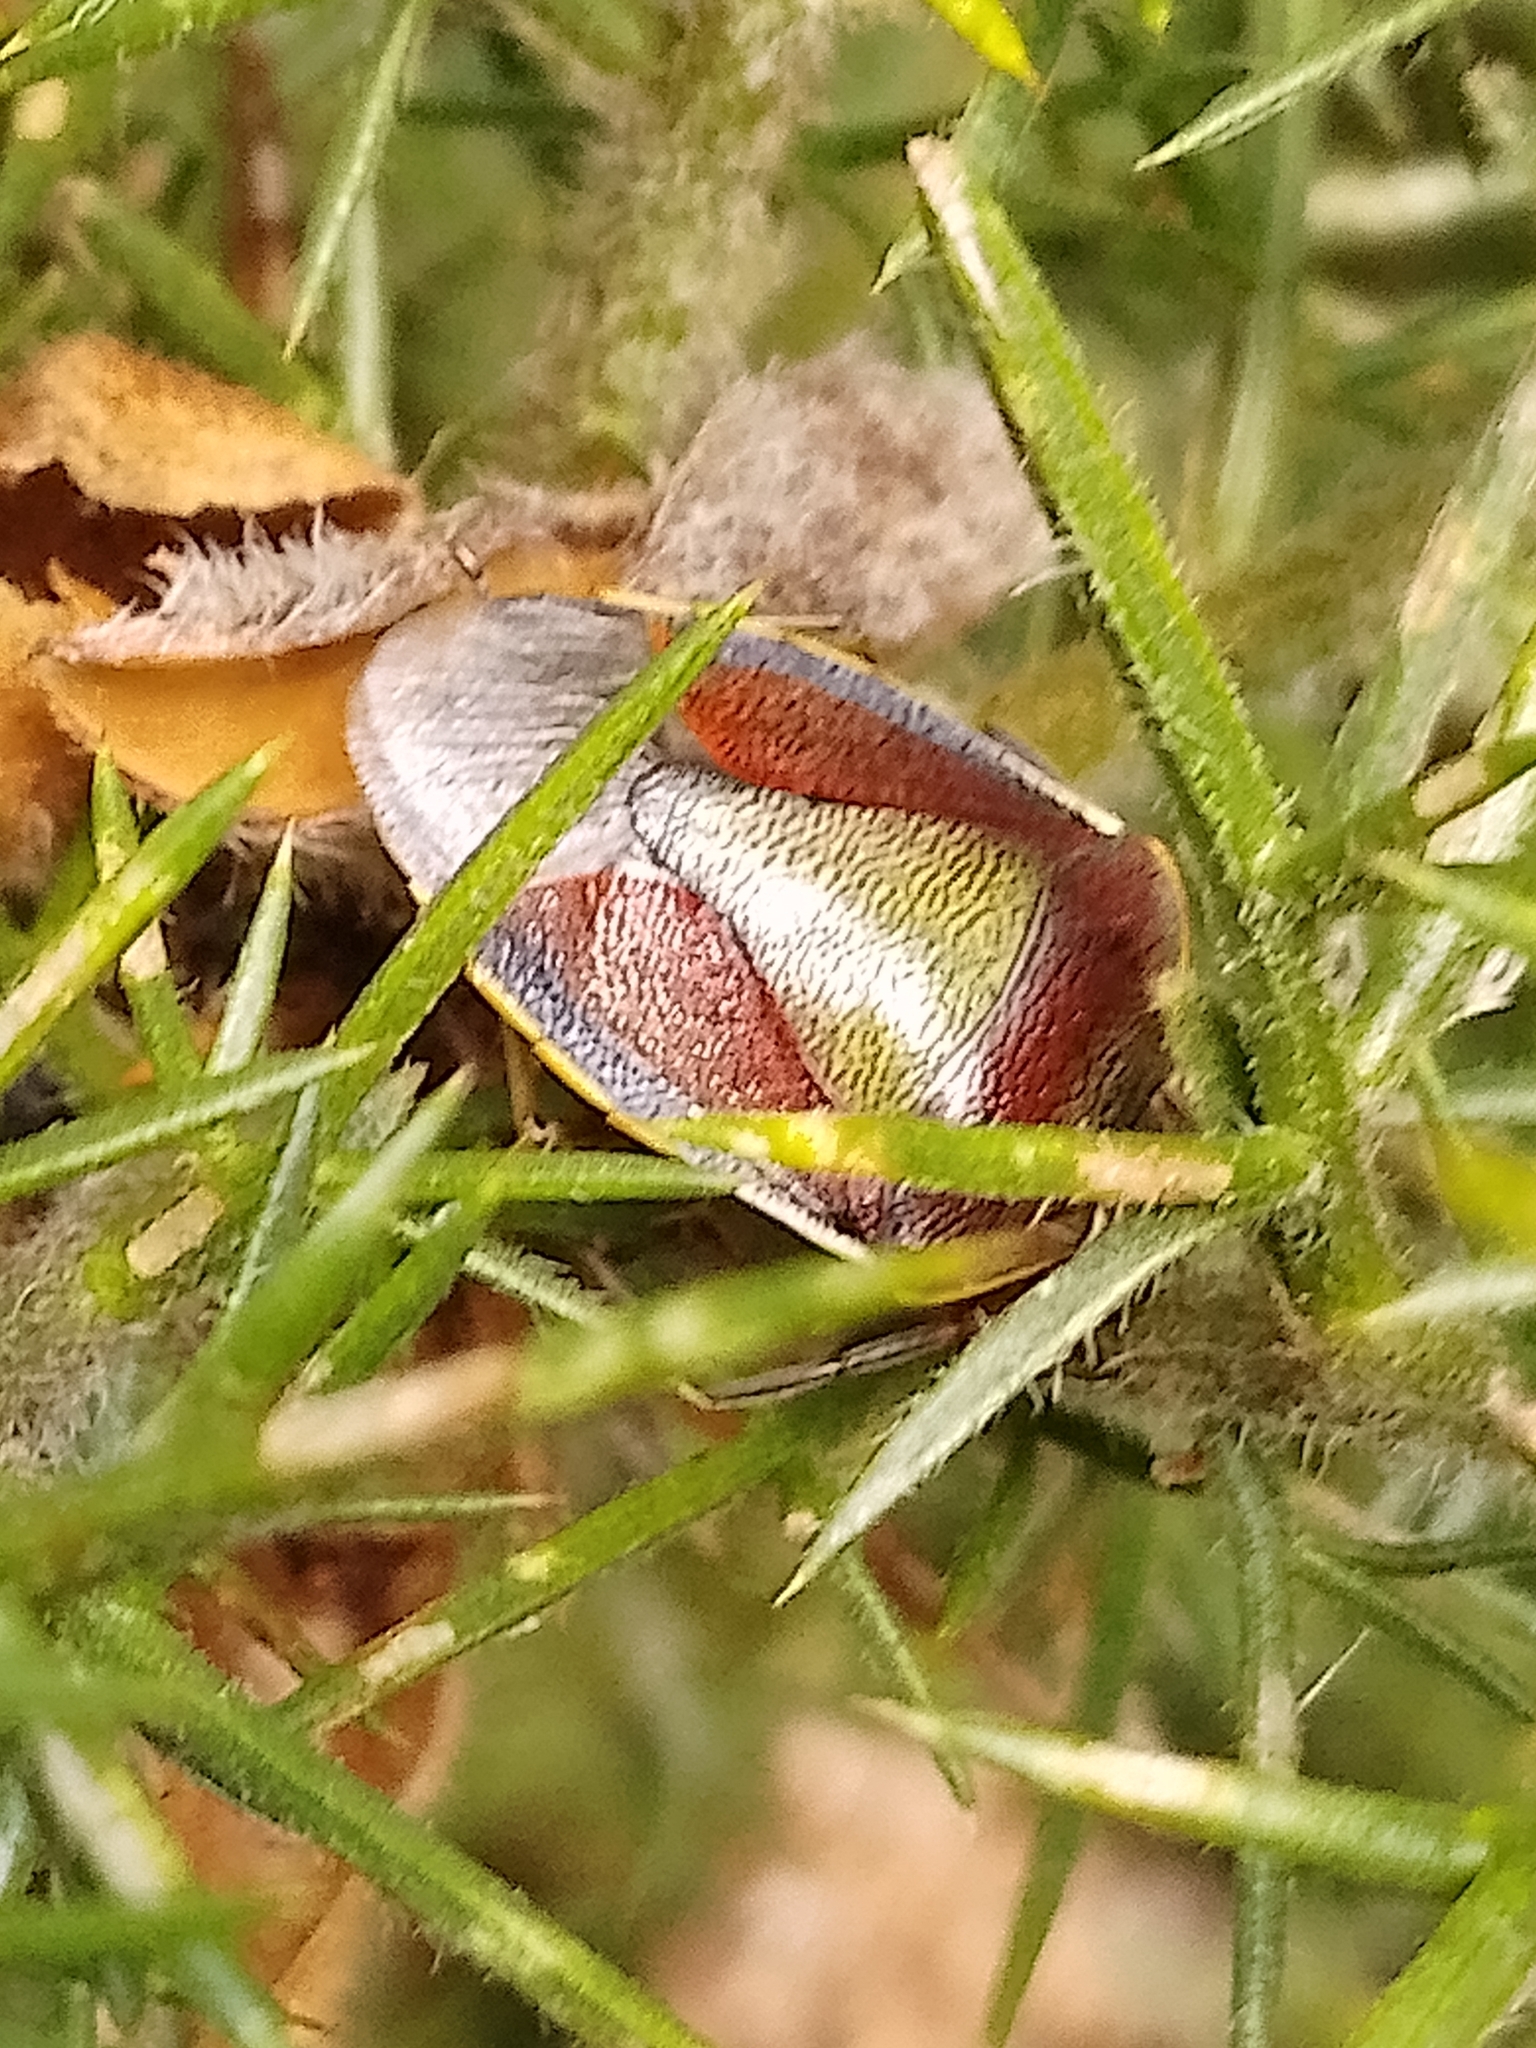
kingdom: Animalia
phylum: Arthropoda
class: Insecta
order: Hemiptera
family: Pentatomidae
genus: Piezodorus
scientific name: Piezodorus lituratus
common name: Stink bug
